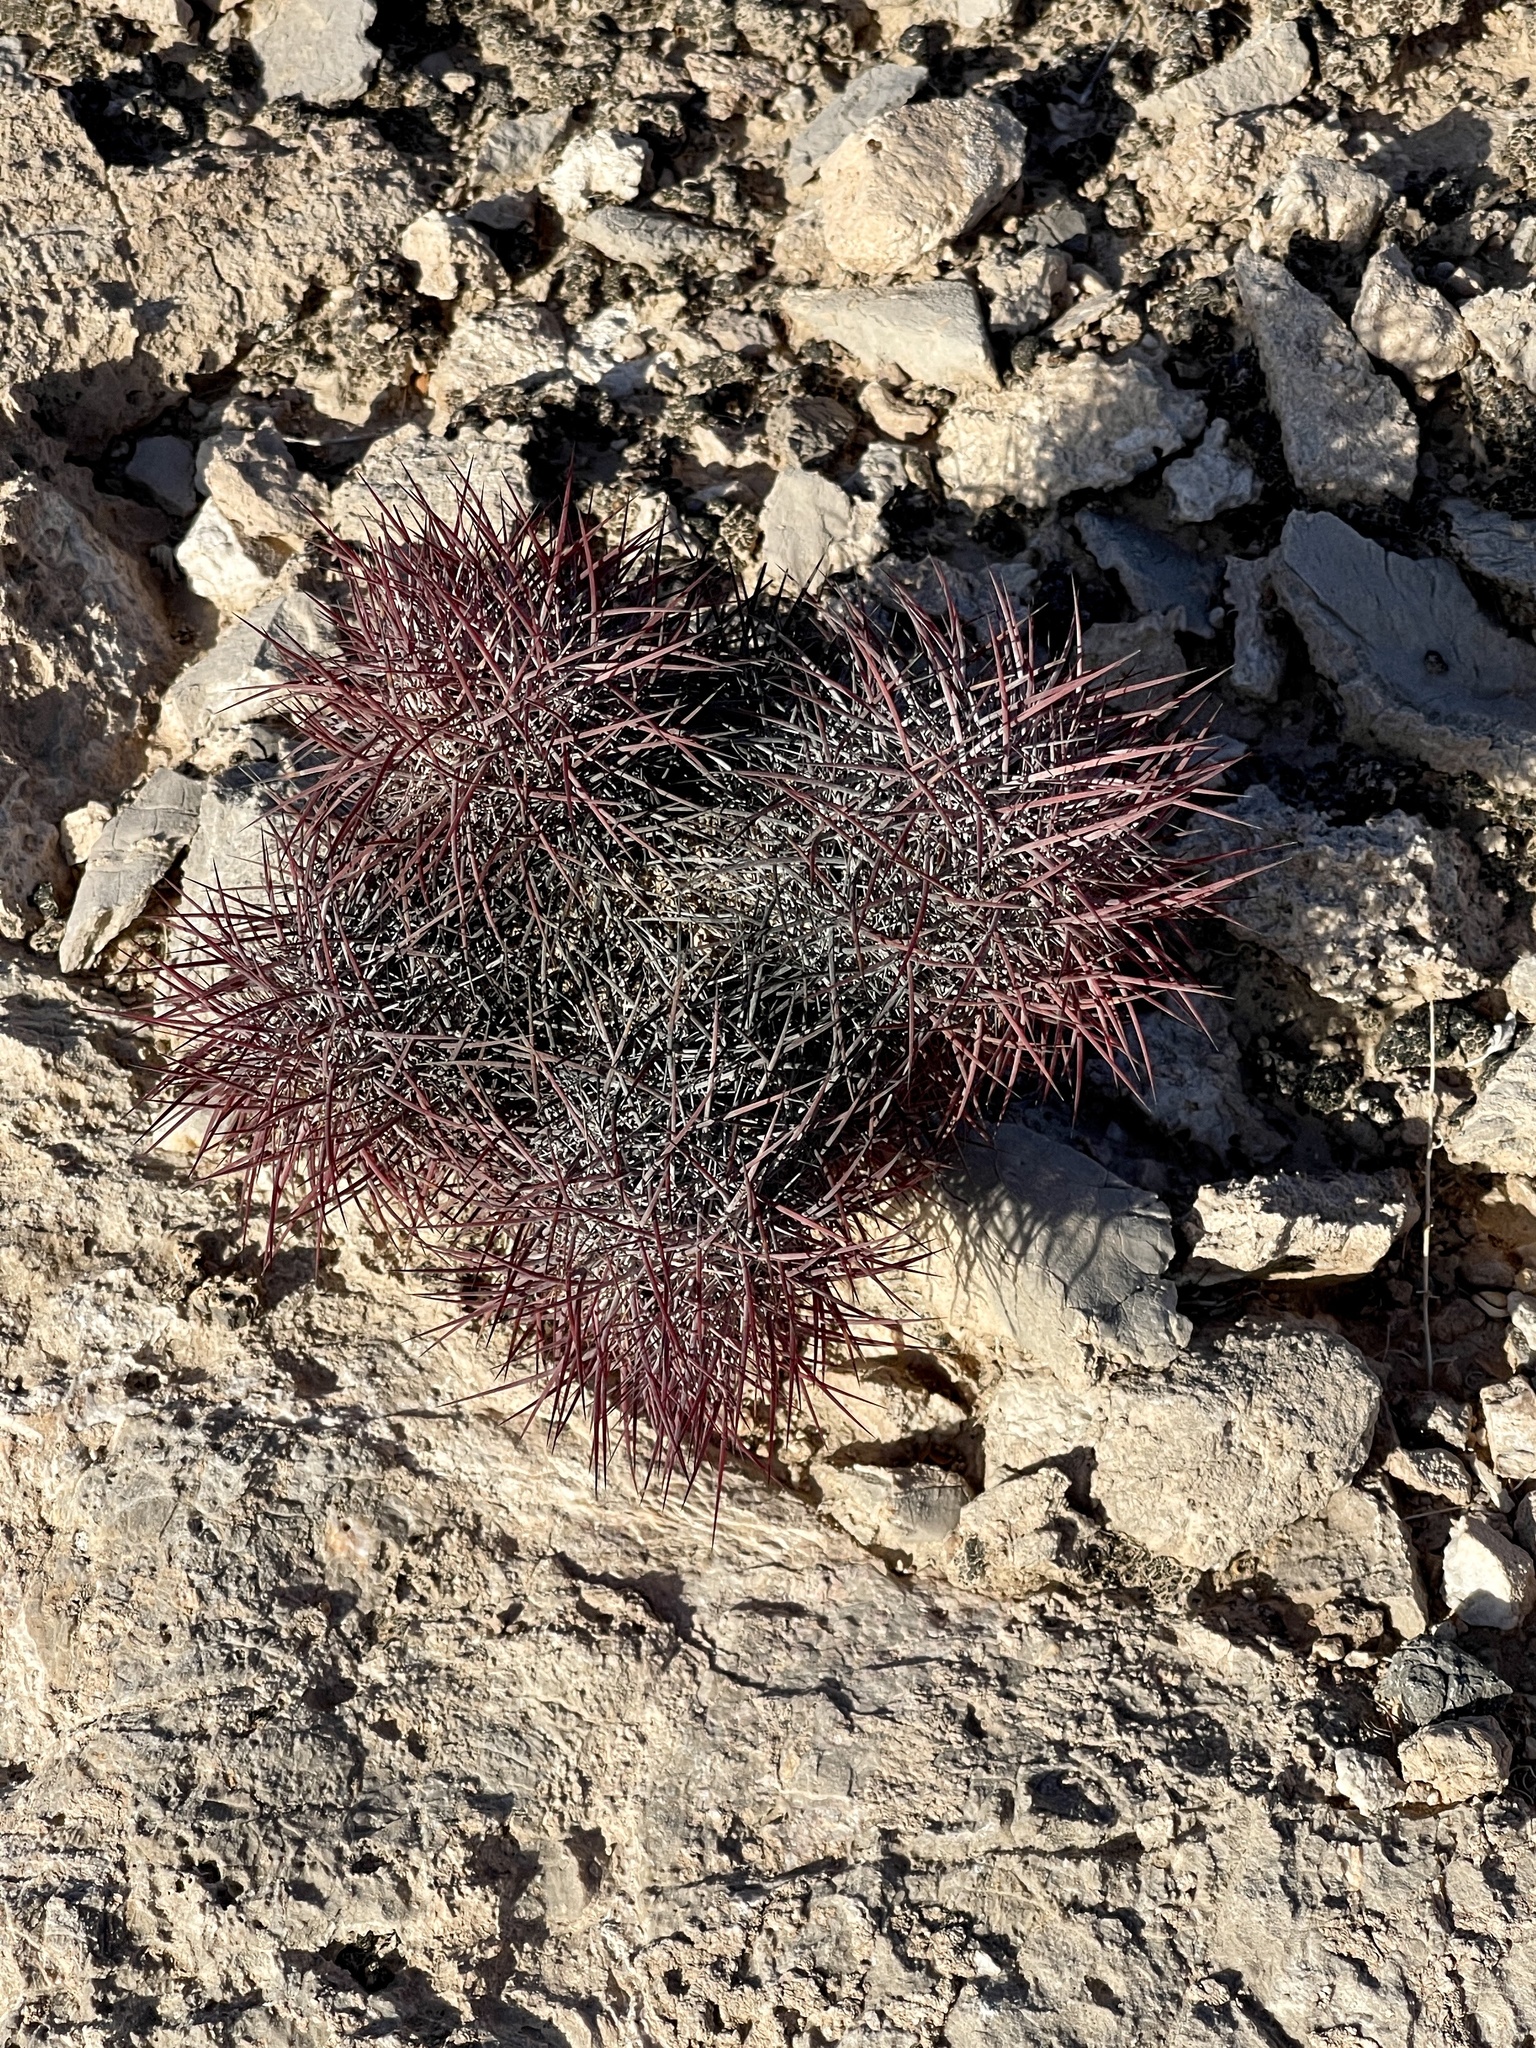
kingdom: Plantae
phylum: Tracheophyta
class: Magnoliopsida
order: Caryophyllales
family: Cactaceae
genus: Sclerocactus
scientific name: Sclerocactus johnsonii
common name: Eight-spine fishhook cactus
